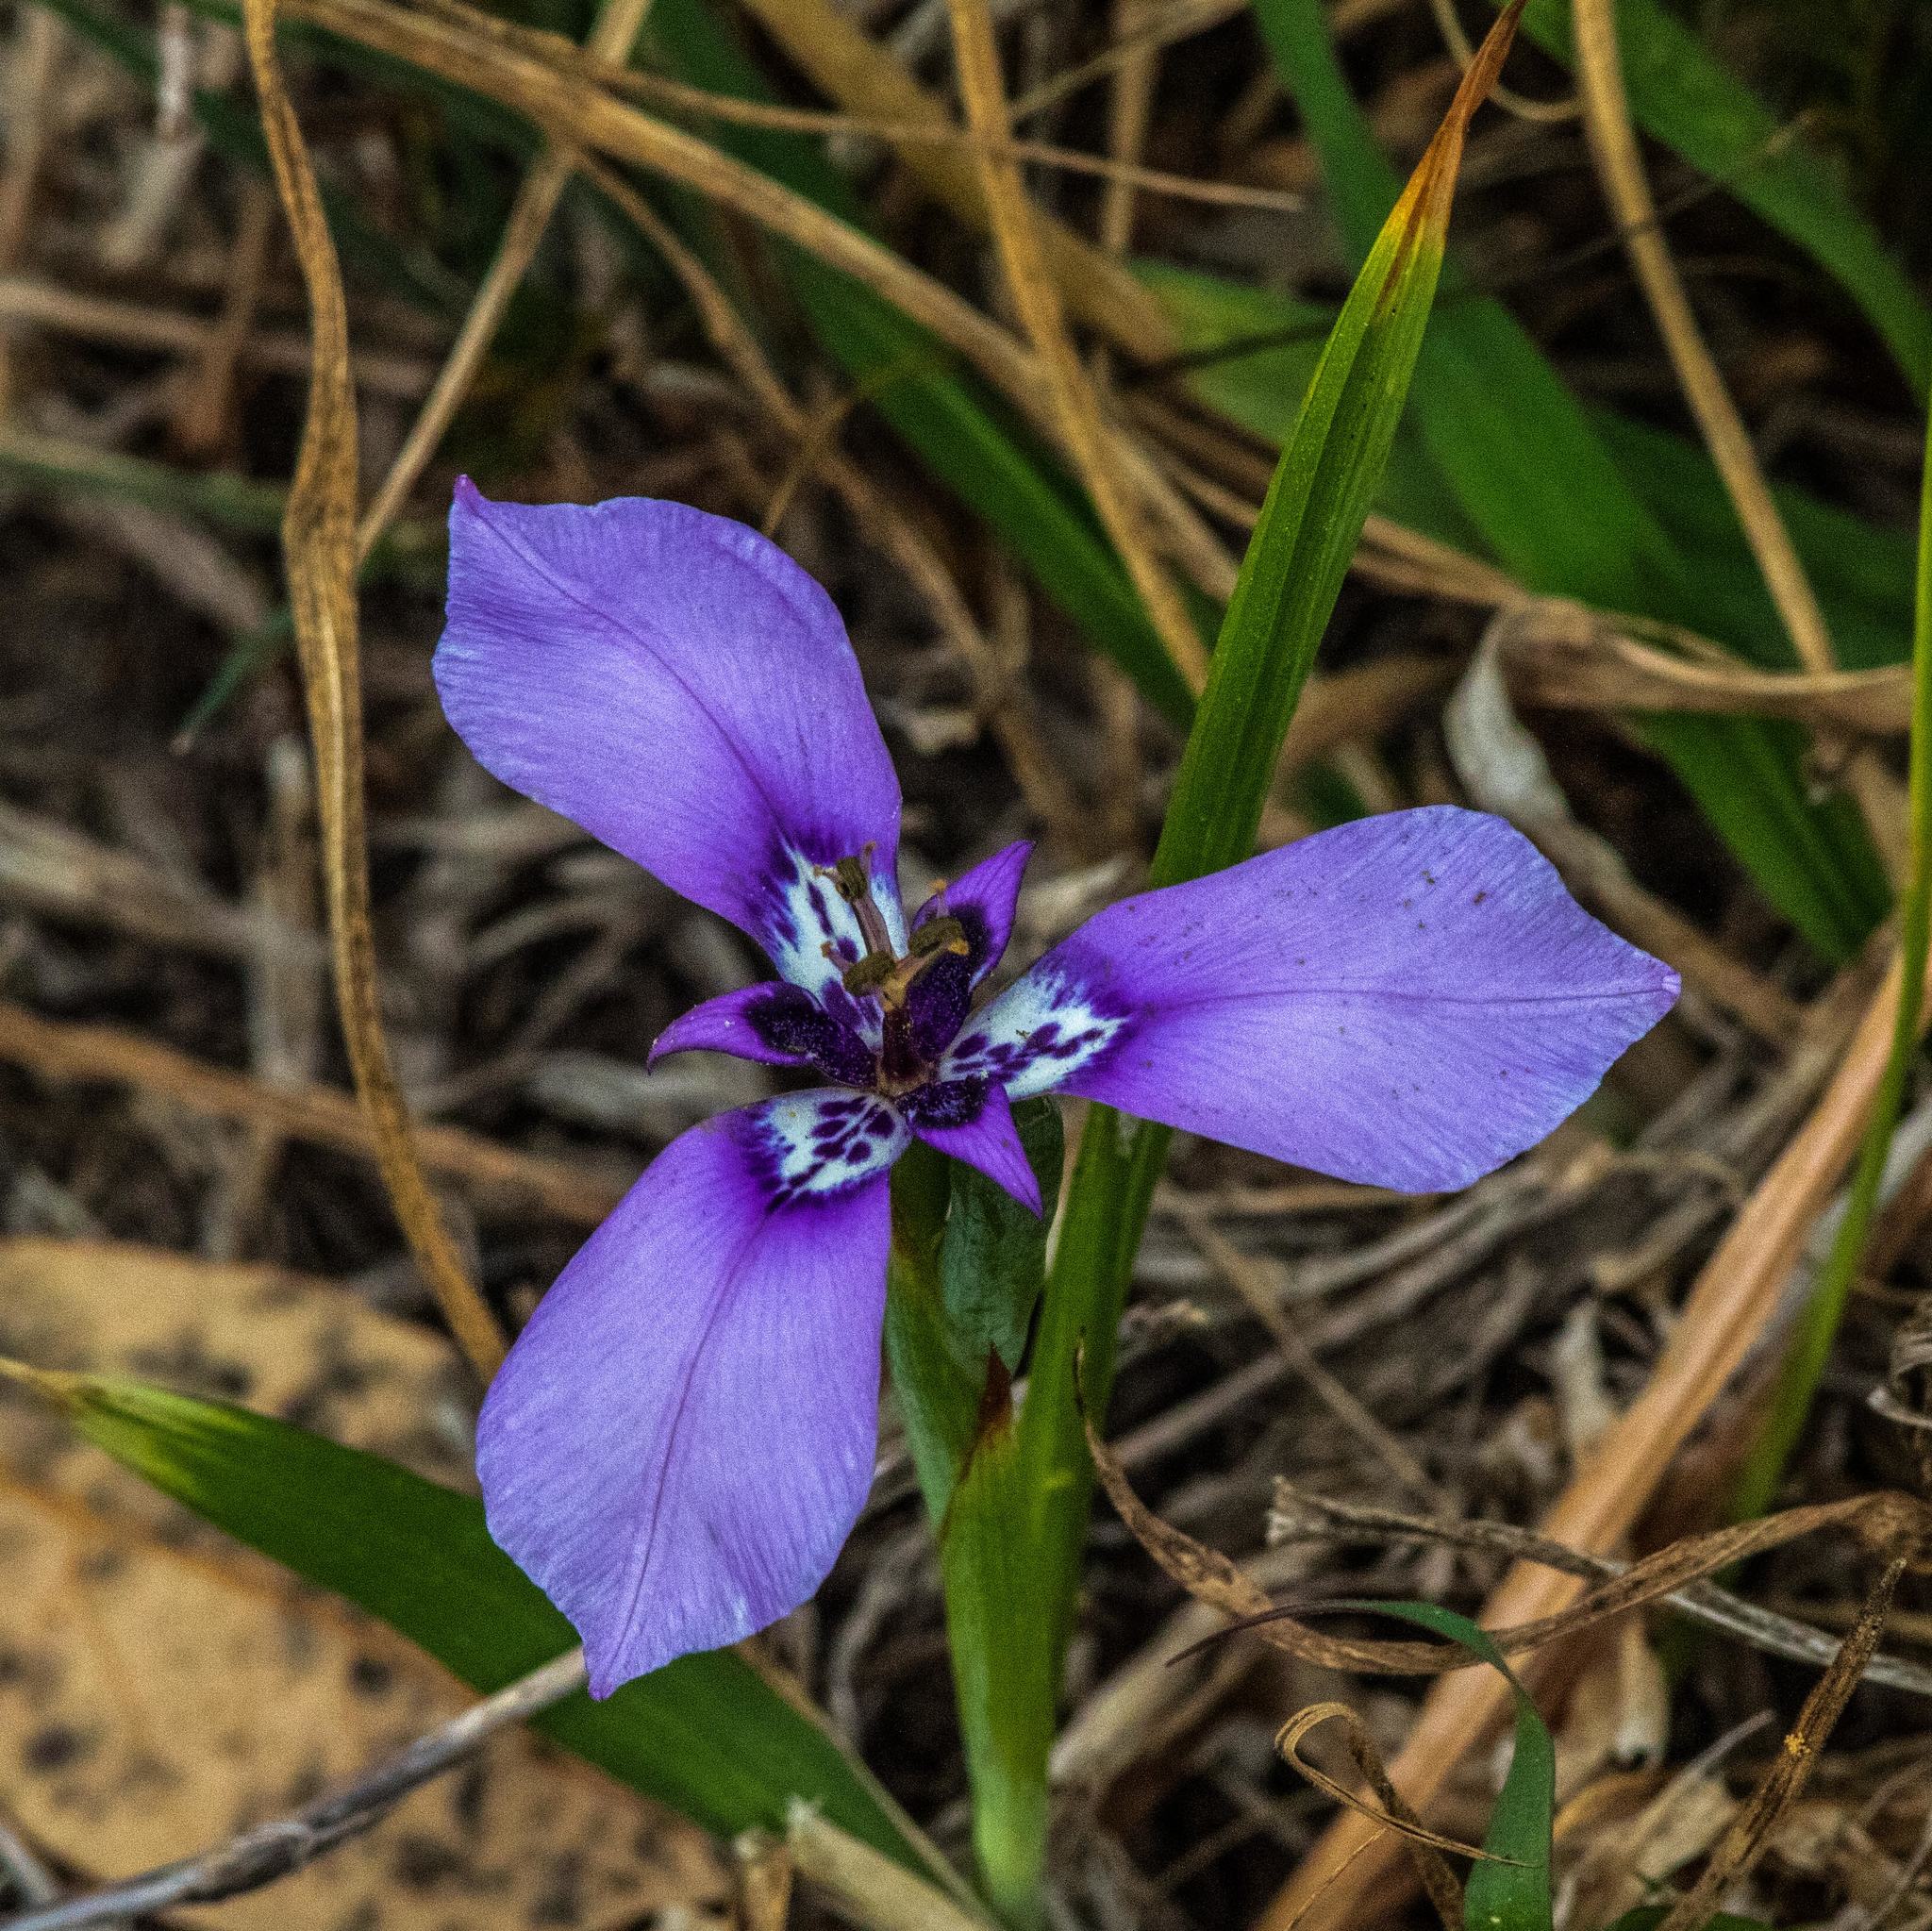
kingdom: Plantae
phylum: Tracheophyta
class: Liliopsida
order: Asparagales
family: Iridaceae
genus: Herbertia
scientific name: Herbertia lahue
